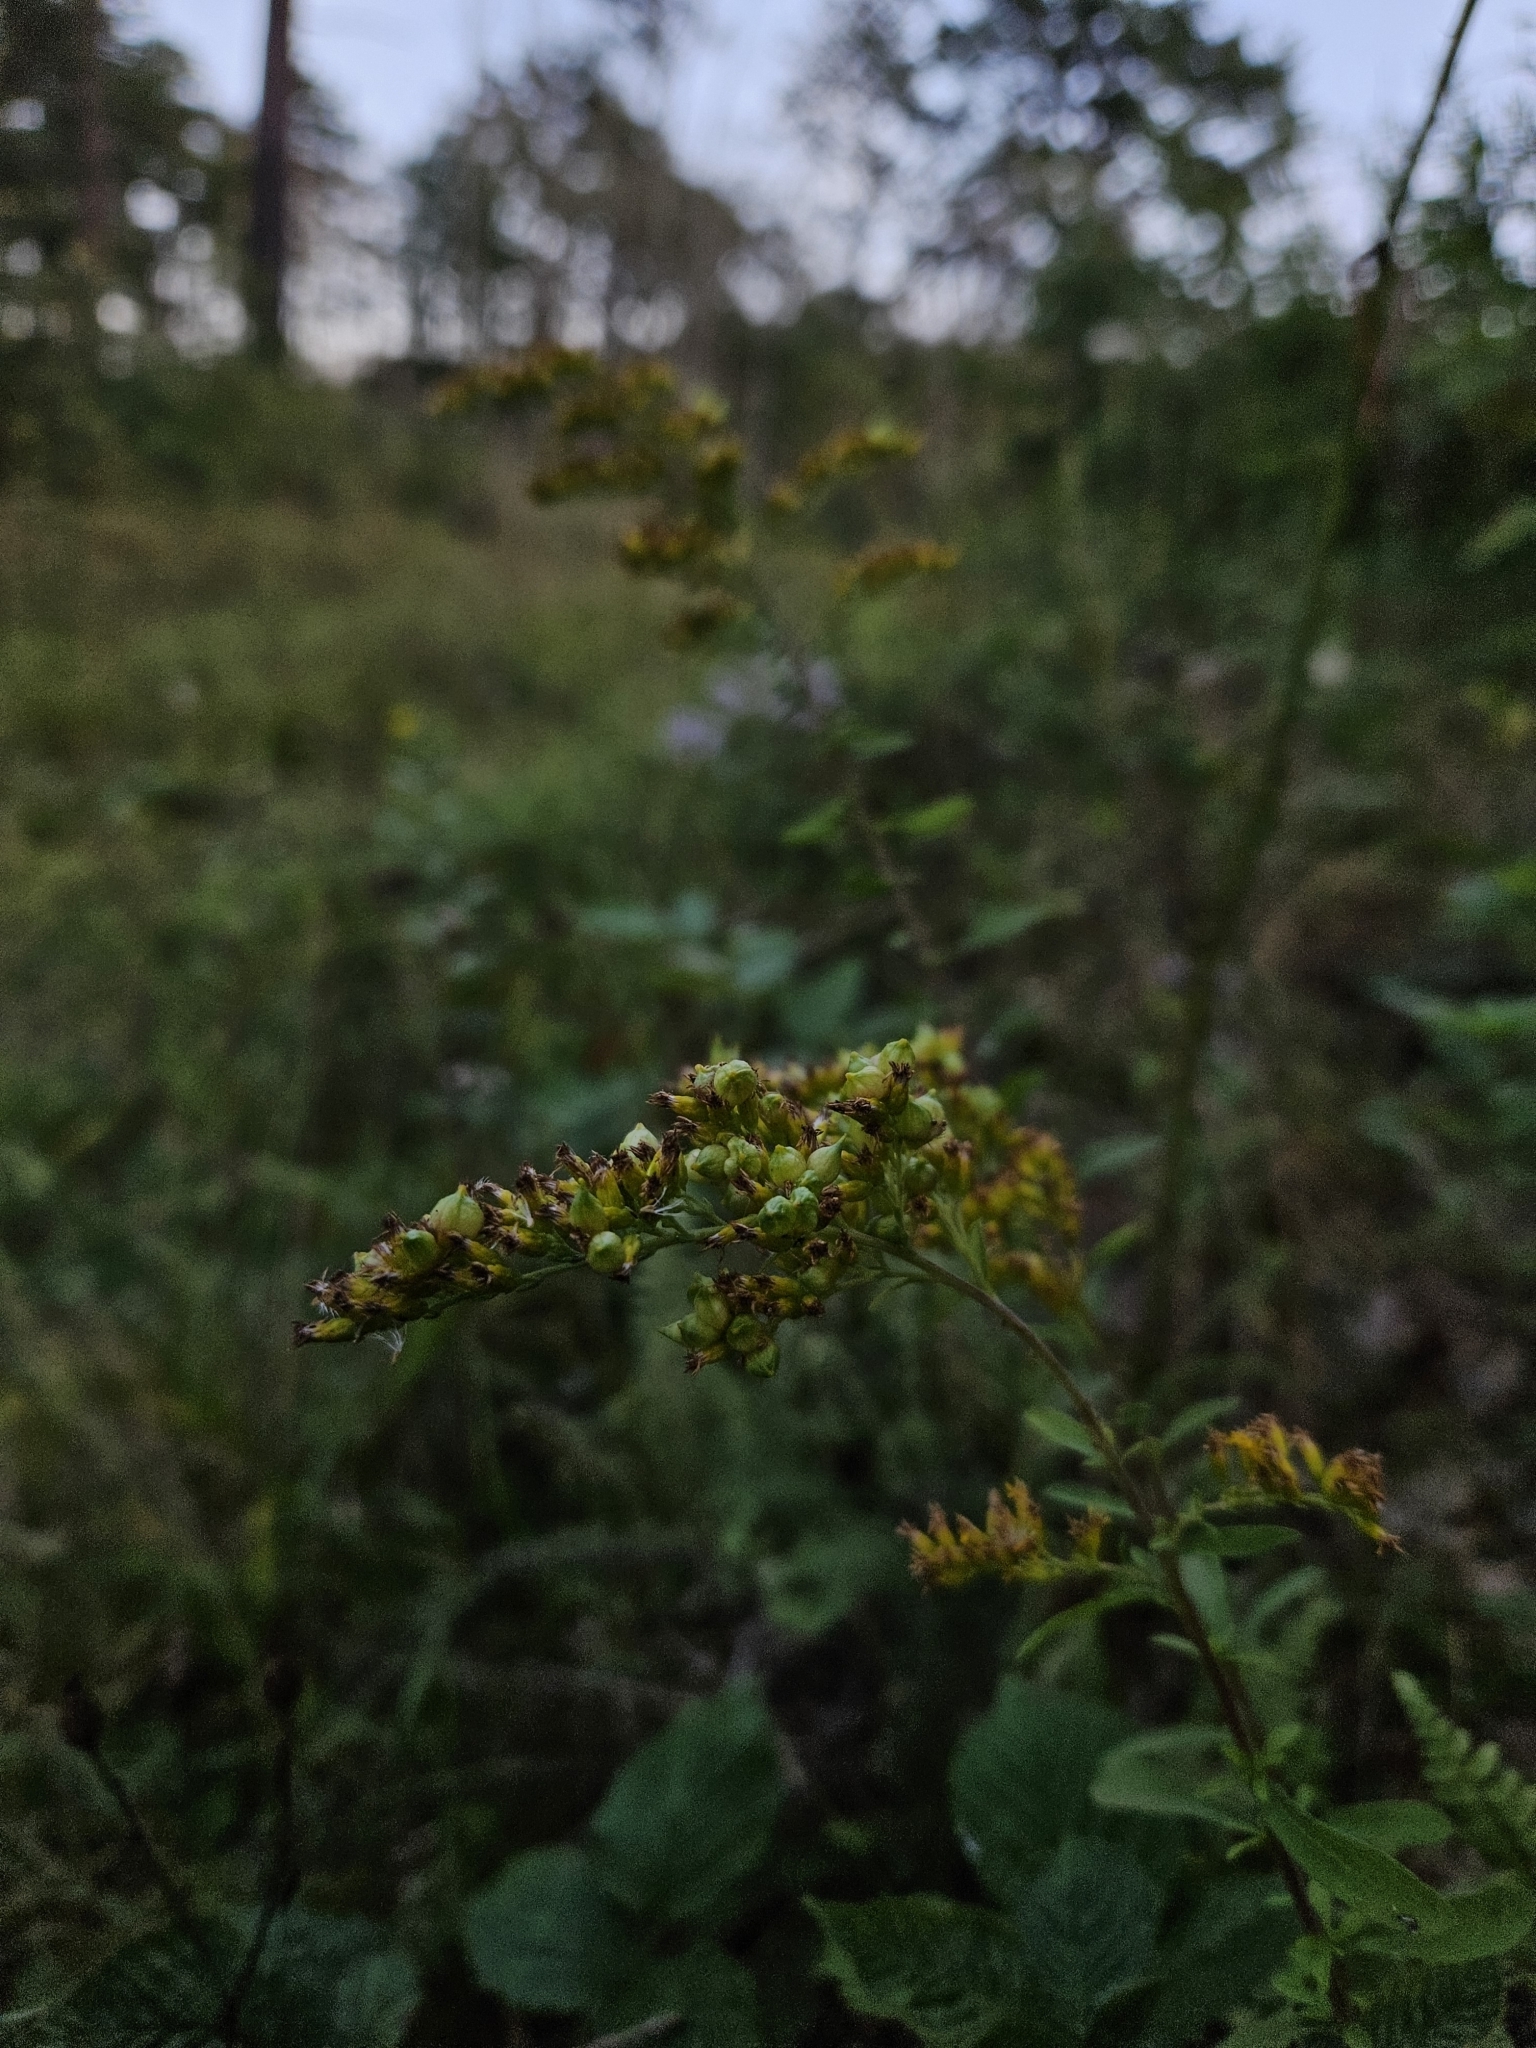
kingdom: Animalia
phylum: Arthropoda
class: Insecta
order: Diptera
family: Cecidomyiidae
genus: Schizomyia
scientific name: Schizomyia racemicola
